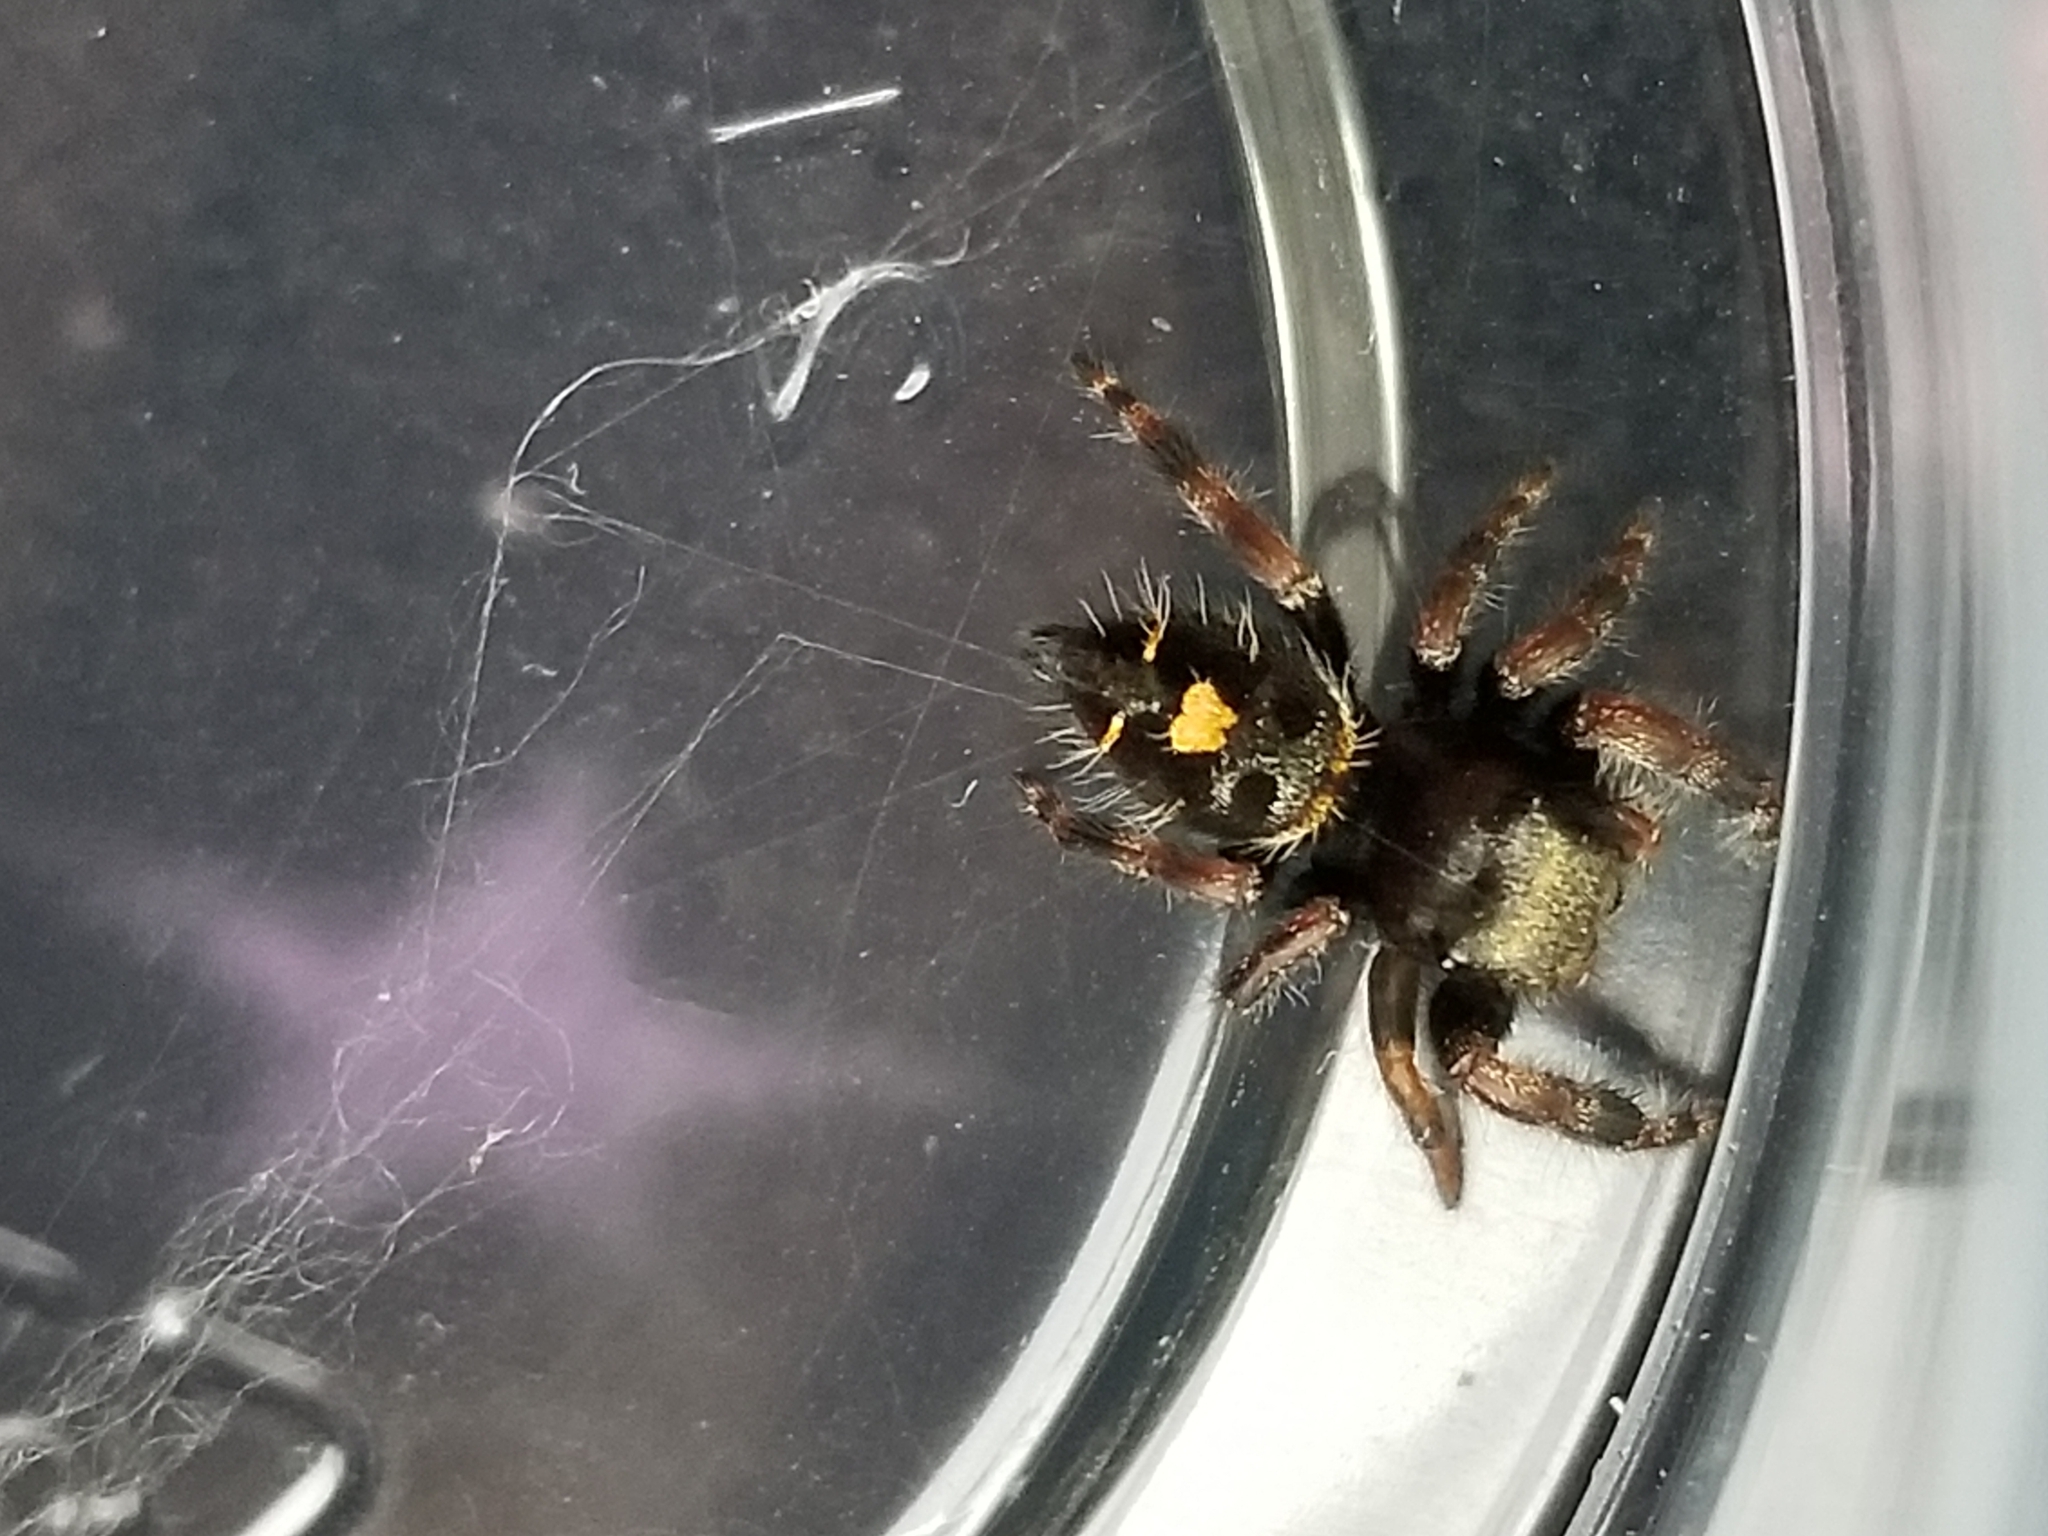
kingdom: Animalia
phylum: Arthropoda
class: Arachnida
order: Araneae
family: Salticidae
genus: Phidippus
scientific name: Phidippus audax
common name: Bold jumper
